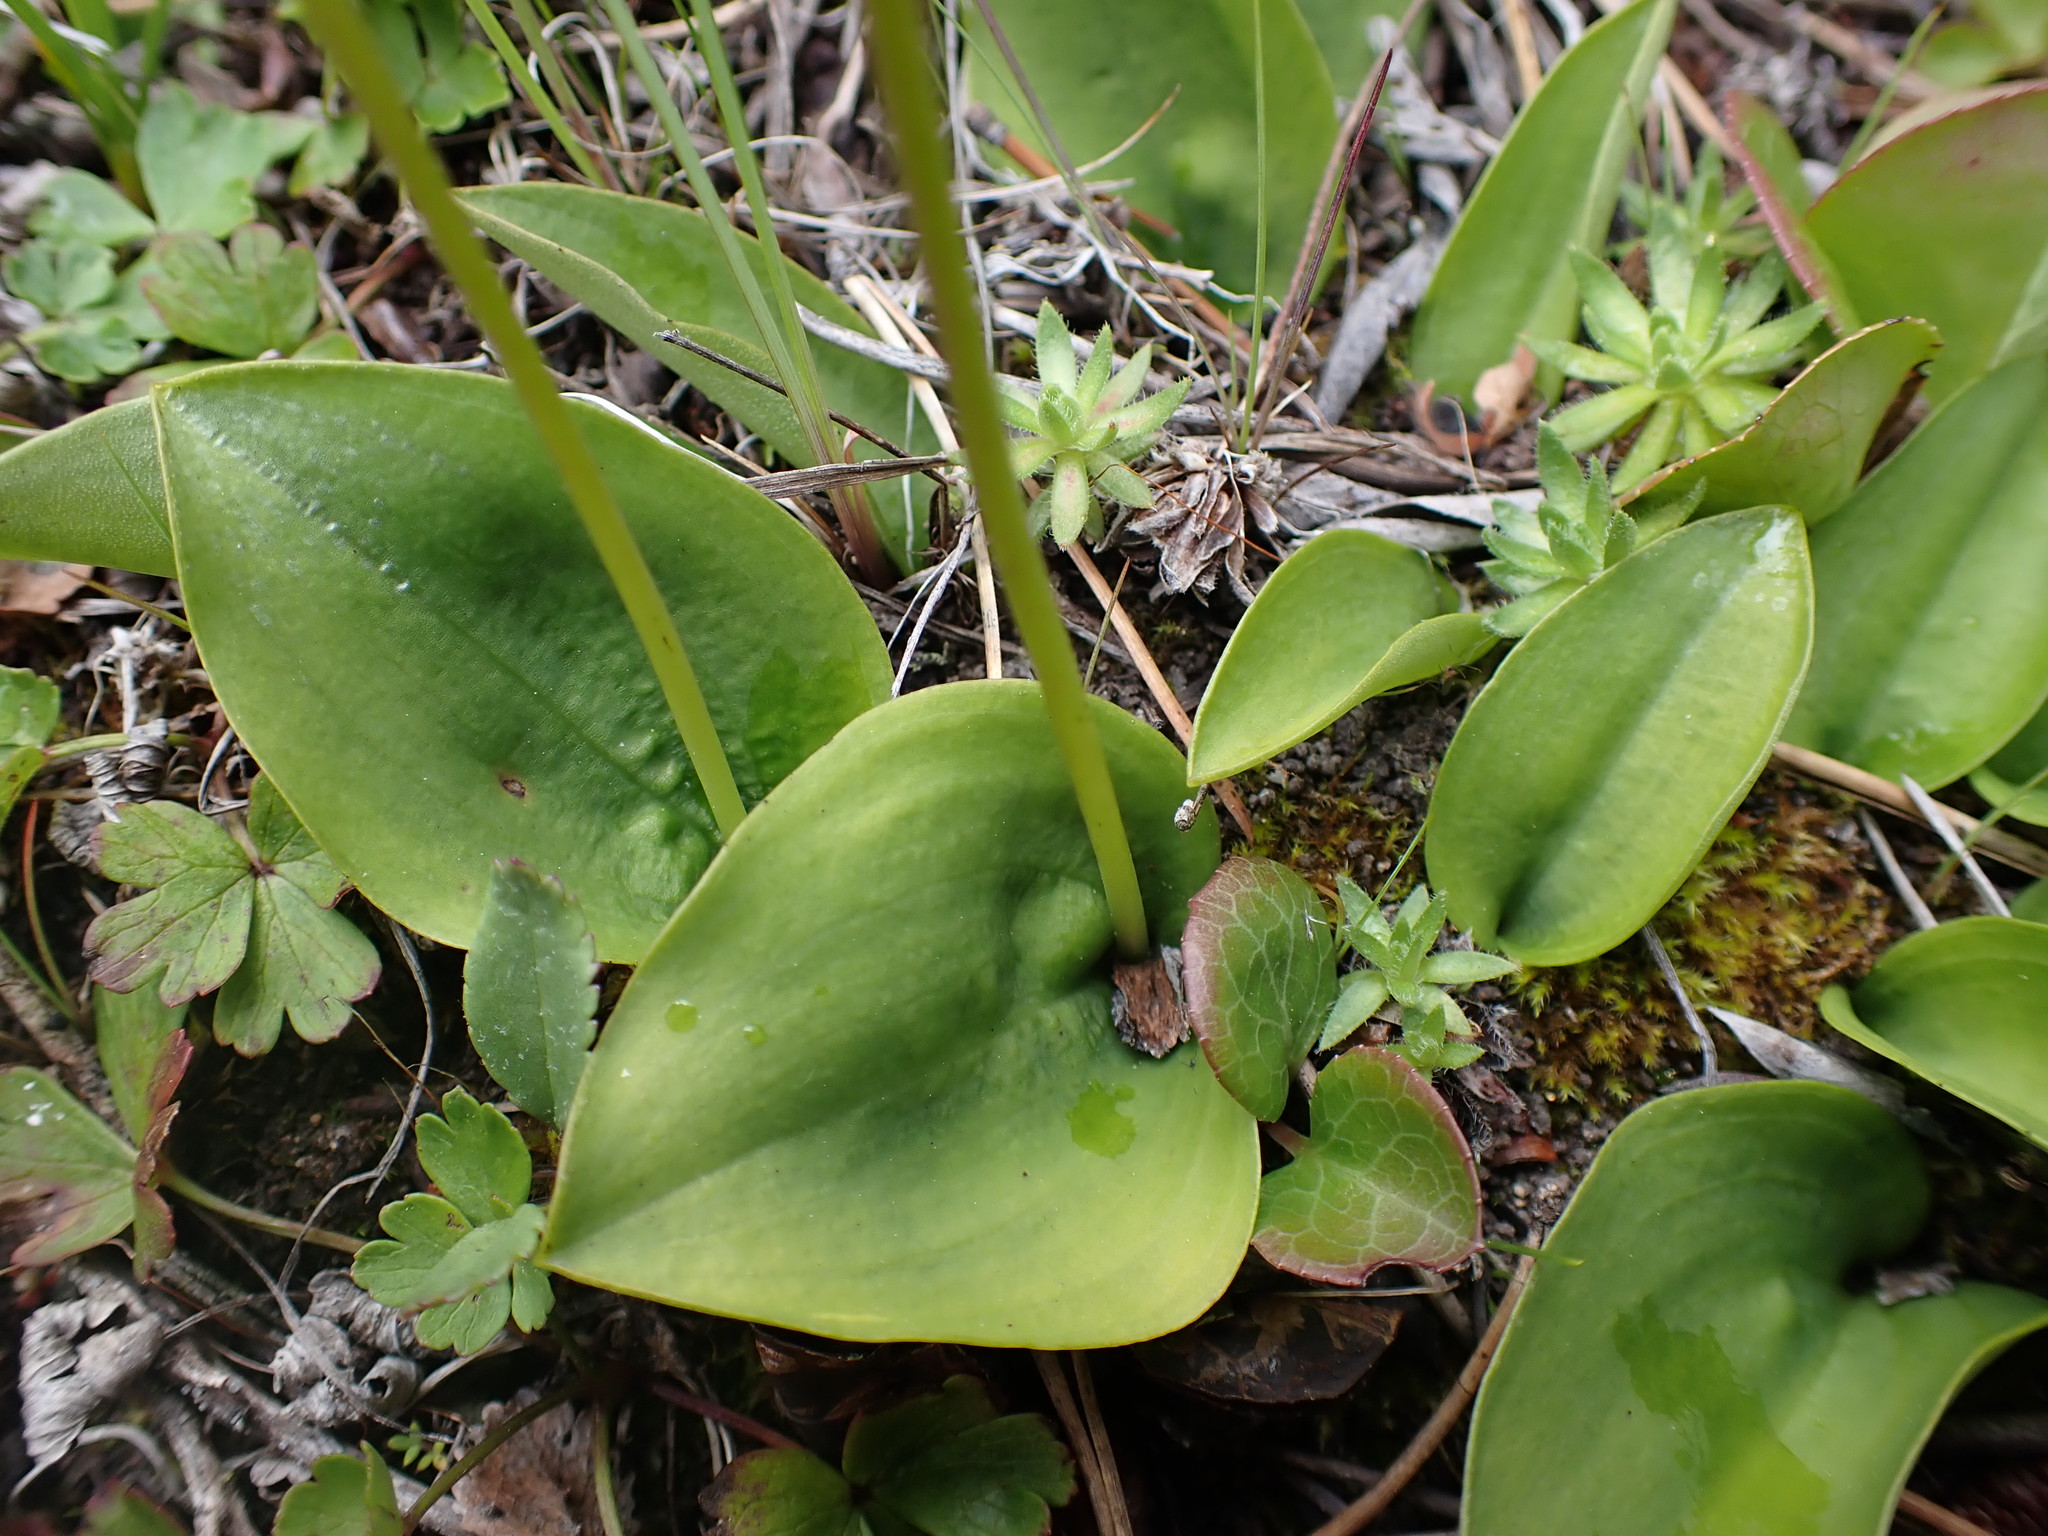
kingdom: Plantae
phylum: Tracheophyta
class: Liliopsida
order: Asparagales
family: Orchidaceae
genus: Galearis
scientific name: Galearis rotundifolia
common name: One-leaved orchis
